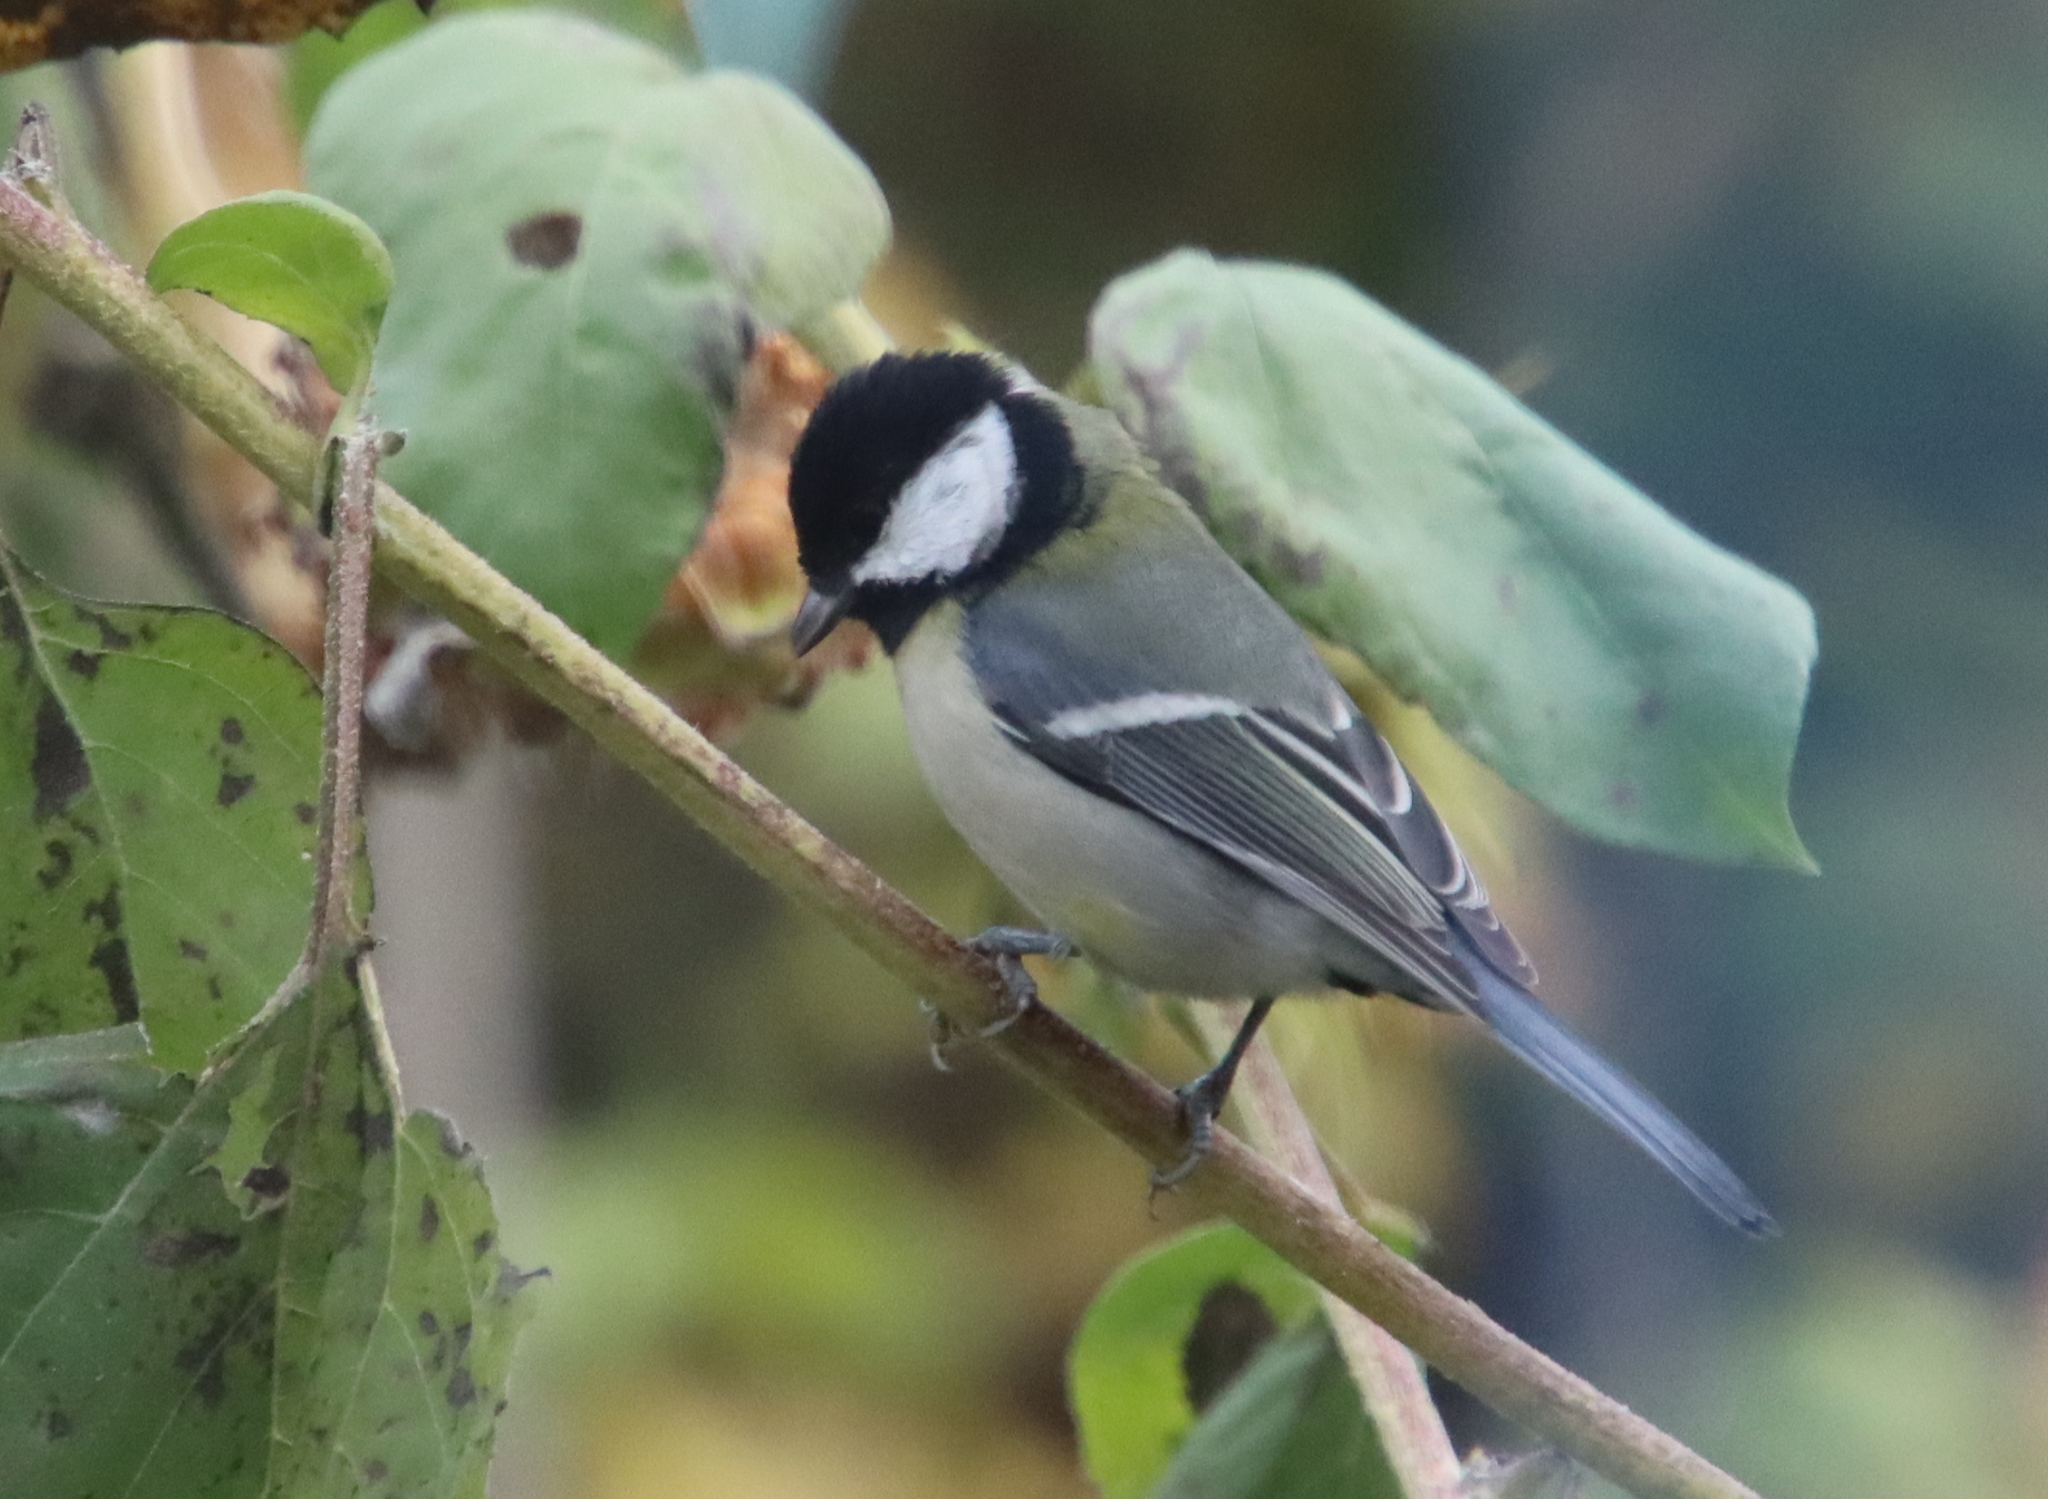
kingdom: Animalia
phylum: Chordata
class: Aves
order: Passeriformes
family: Paridae
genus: Parus
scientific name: Parus major
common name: Great tit
